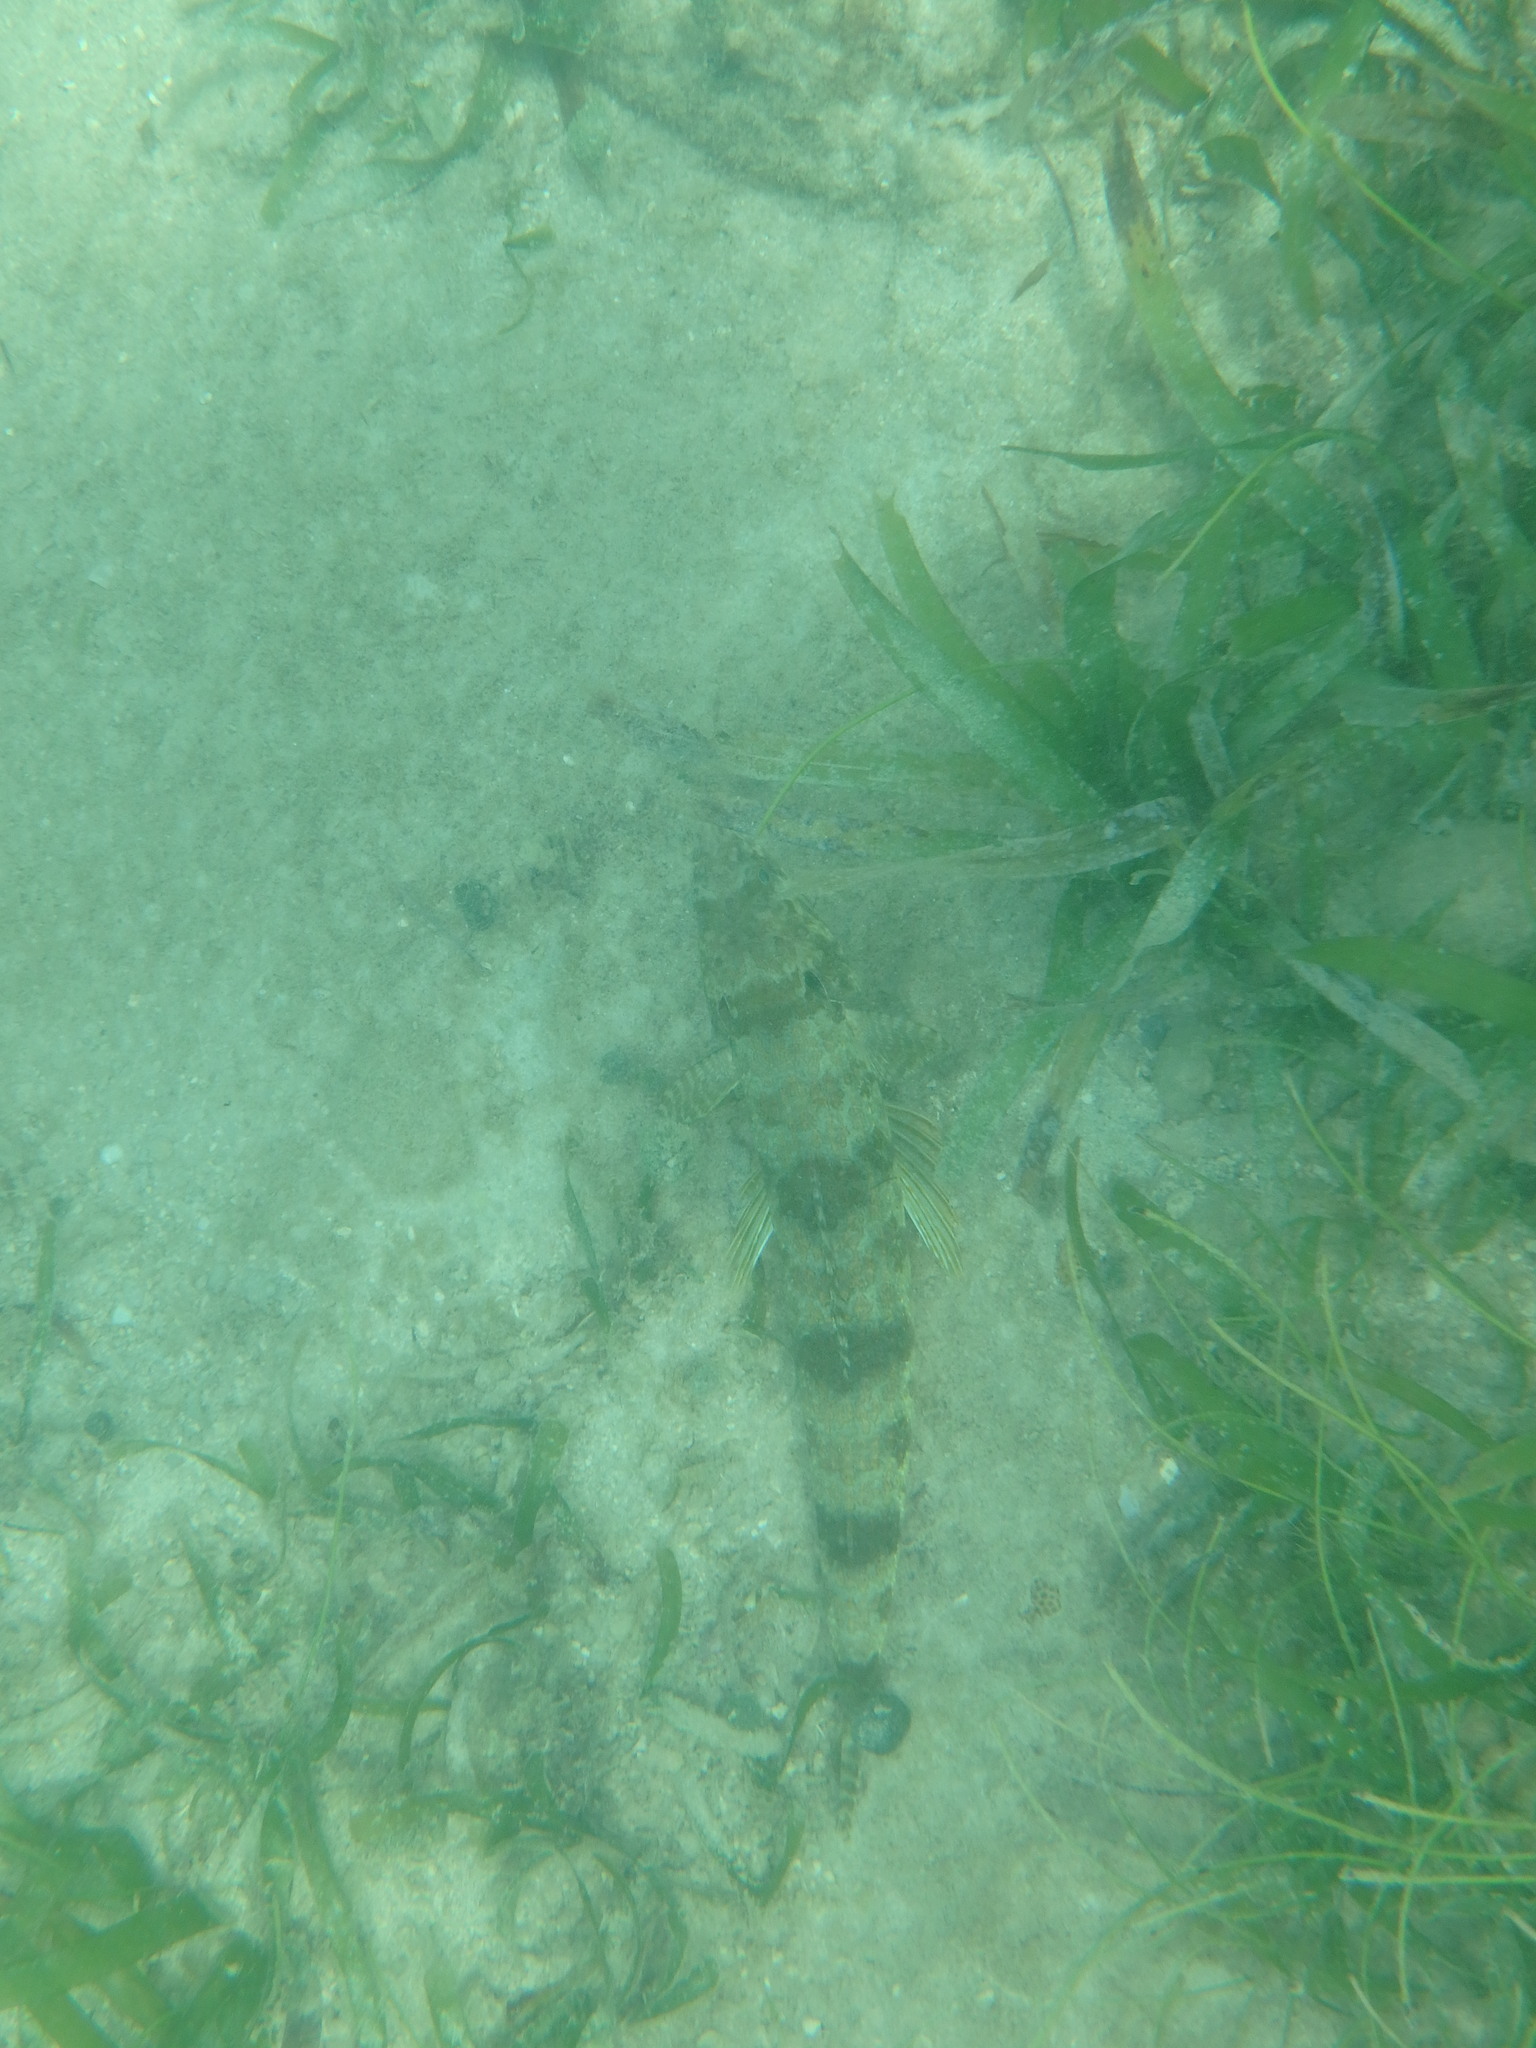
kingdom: Animalia
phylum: Chordata
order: Aulopiformes
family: Synodontidae
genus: Synodus
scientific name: Synodus intermedius
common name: Sand diver
